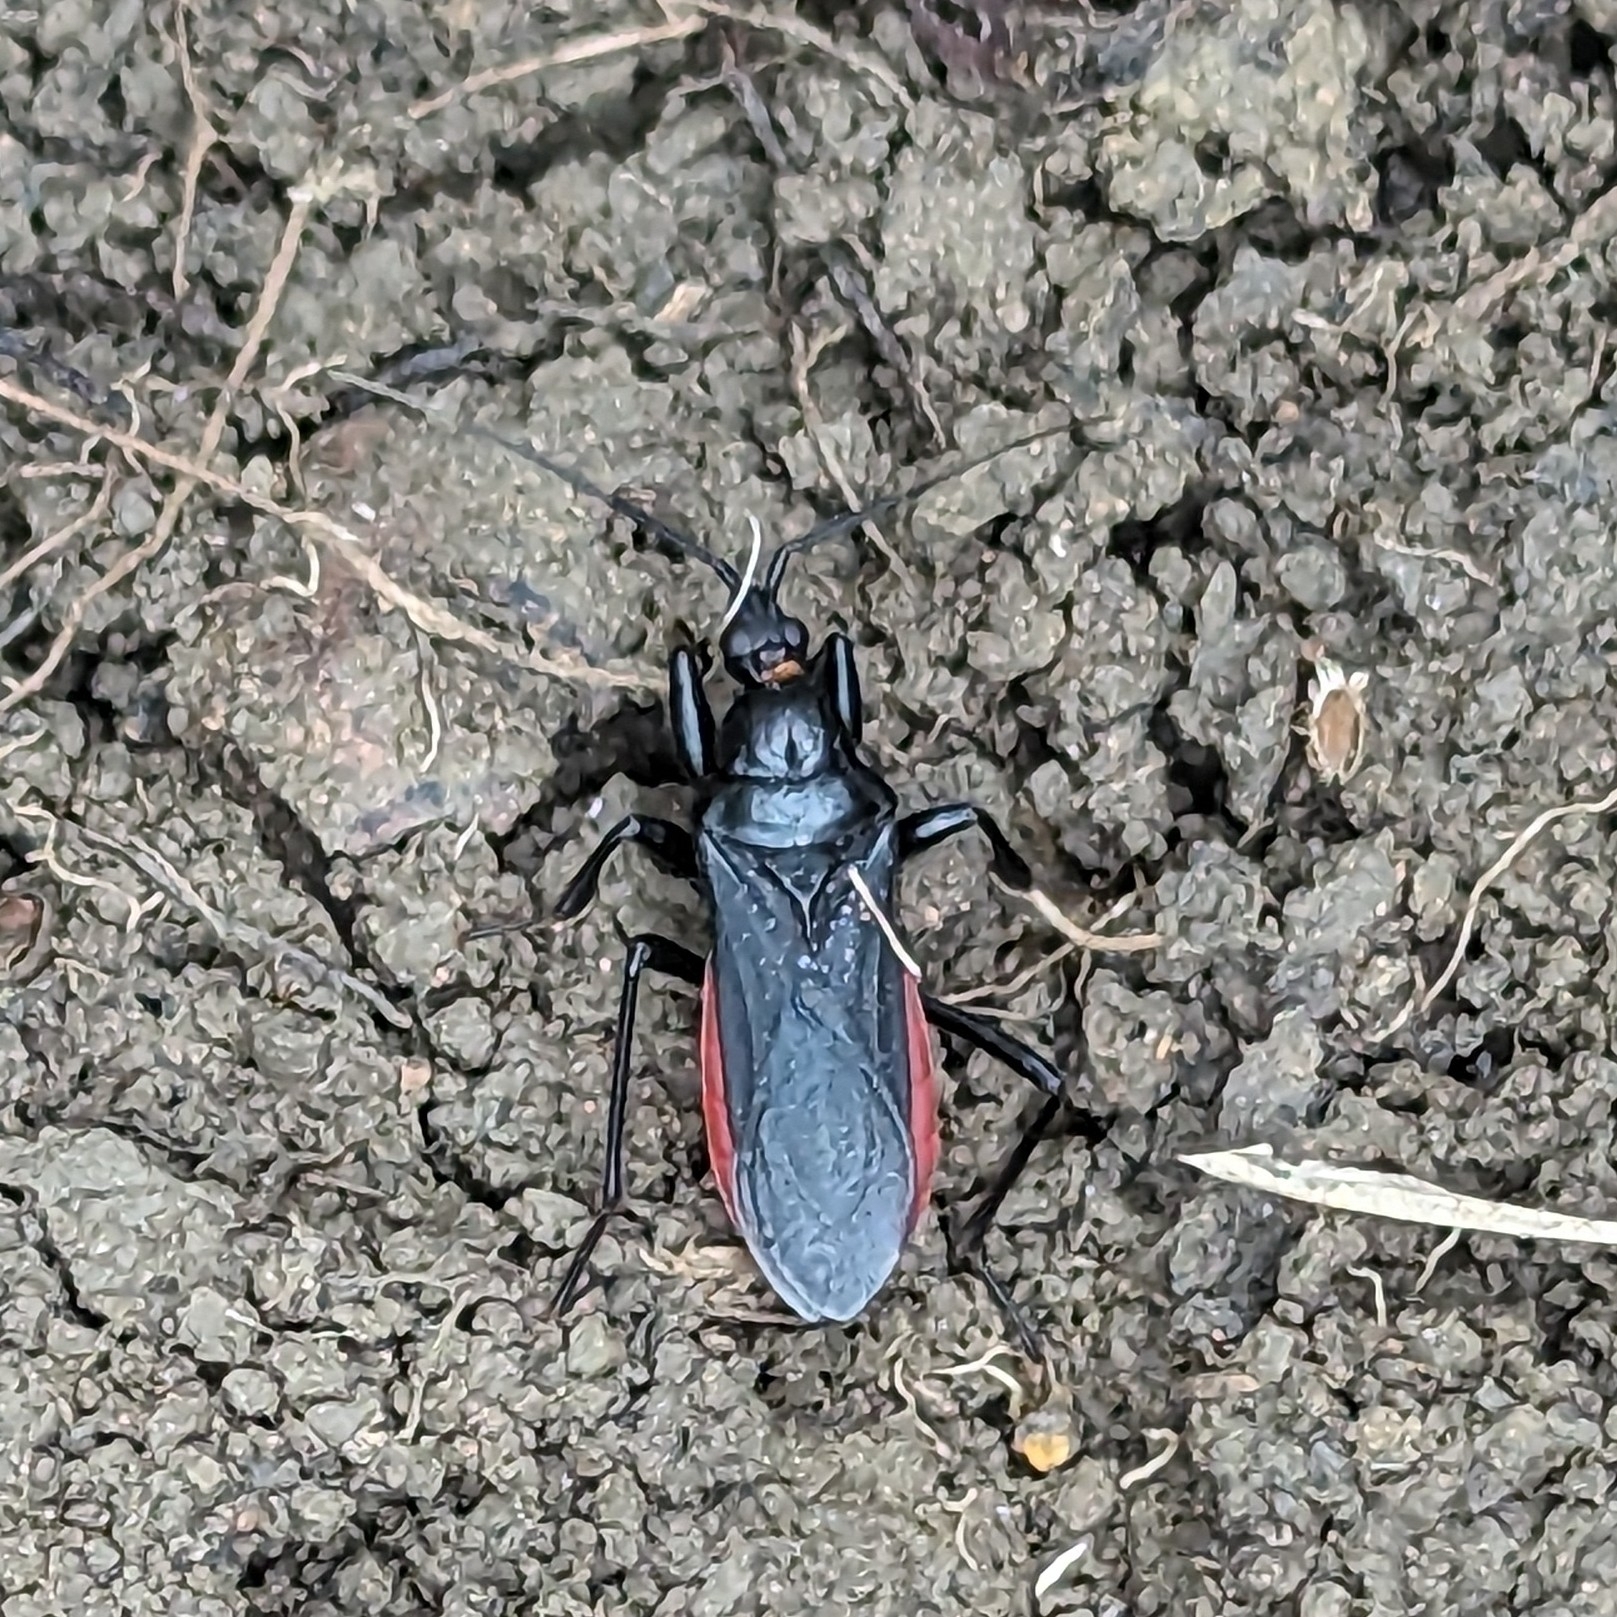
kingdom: Animalia
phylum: Arthropoda
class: Insecta
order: Hemiptera
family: Reduviidae
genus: Melanolestes
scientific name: Melanolestes picipes
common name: Assassin bug
